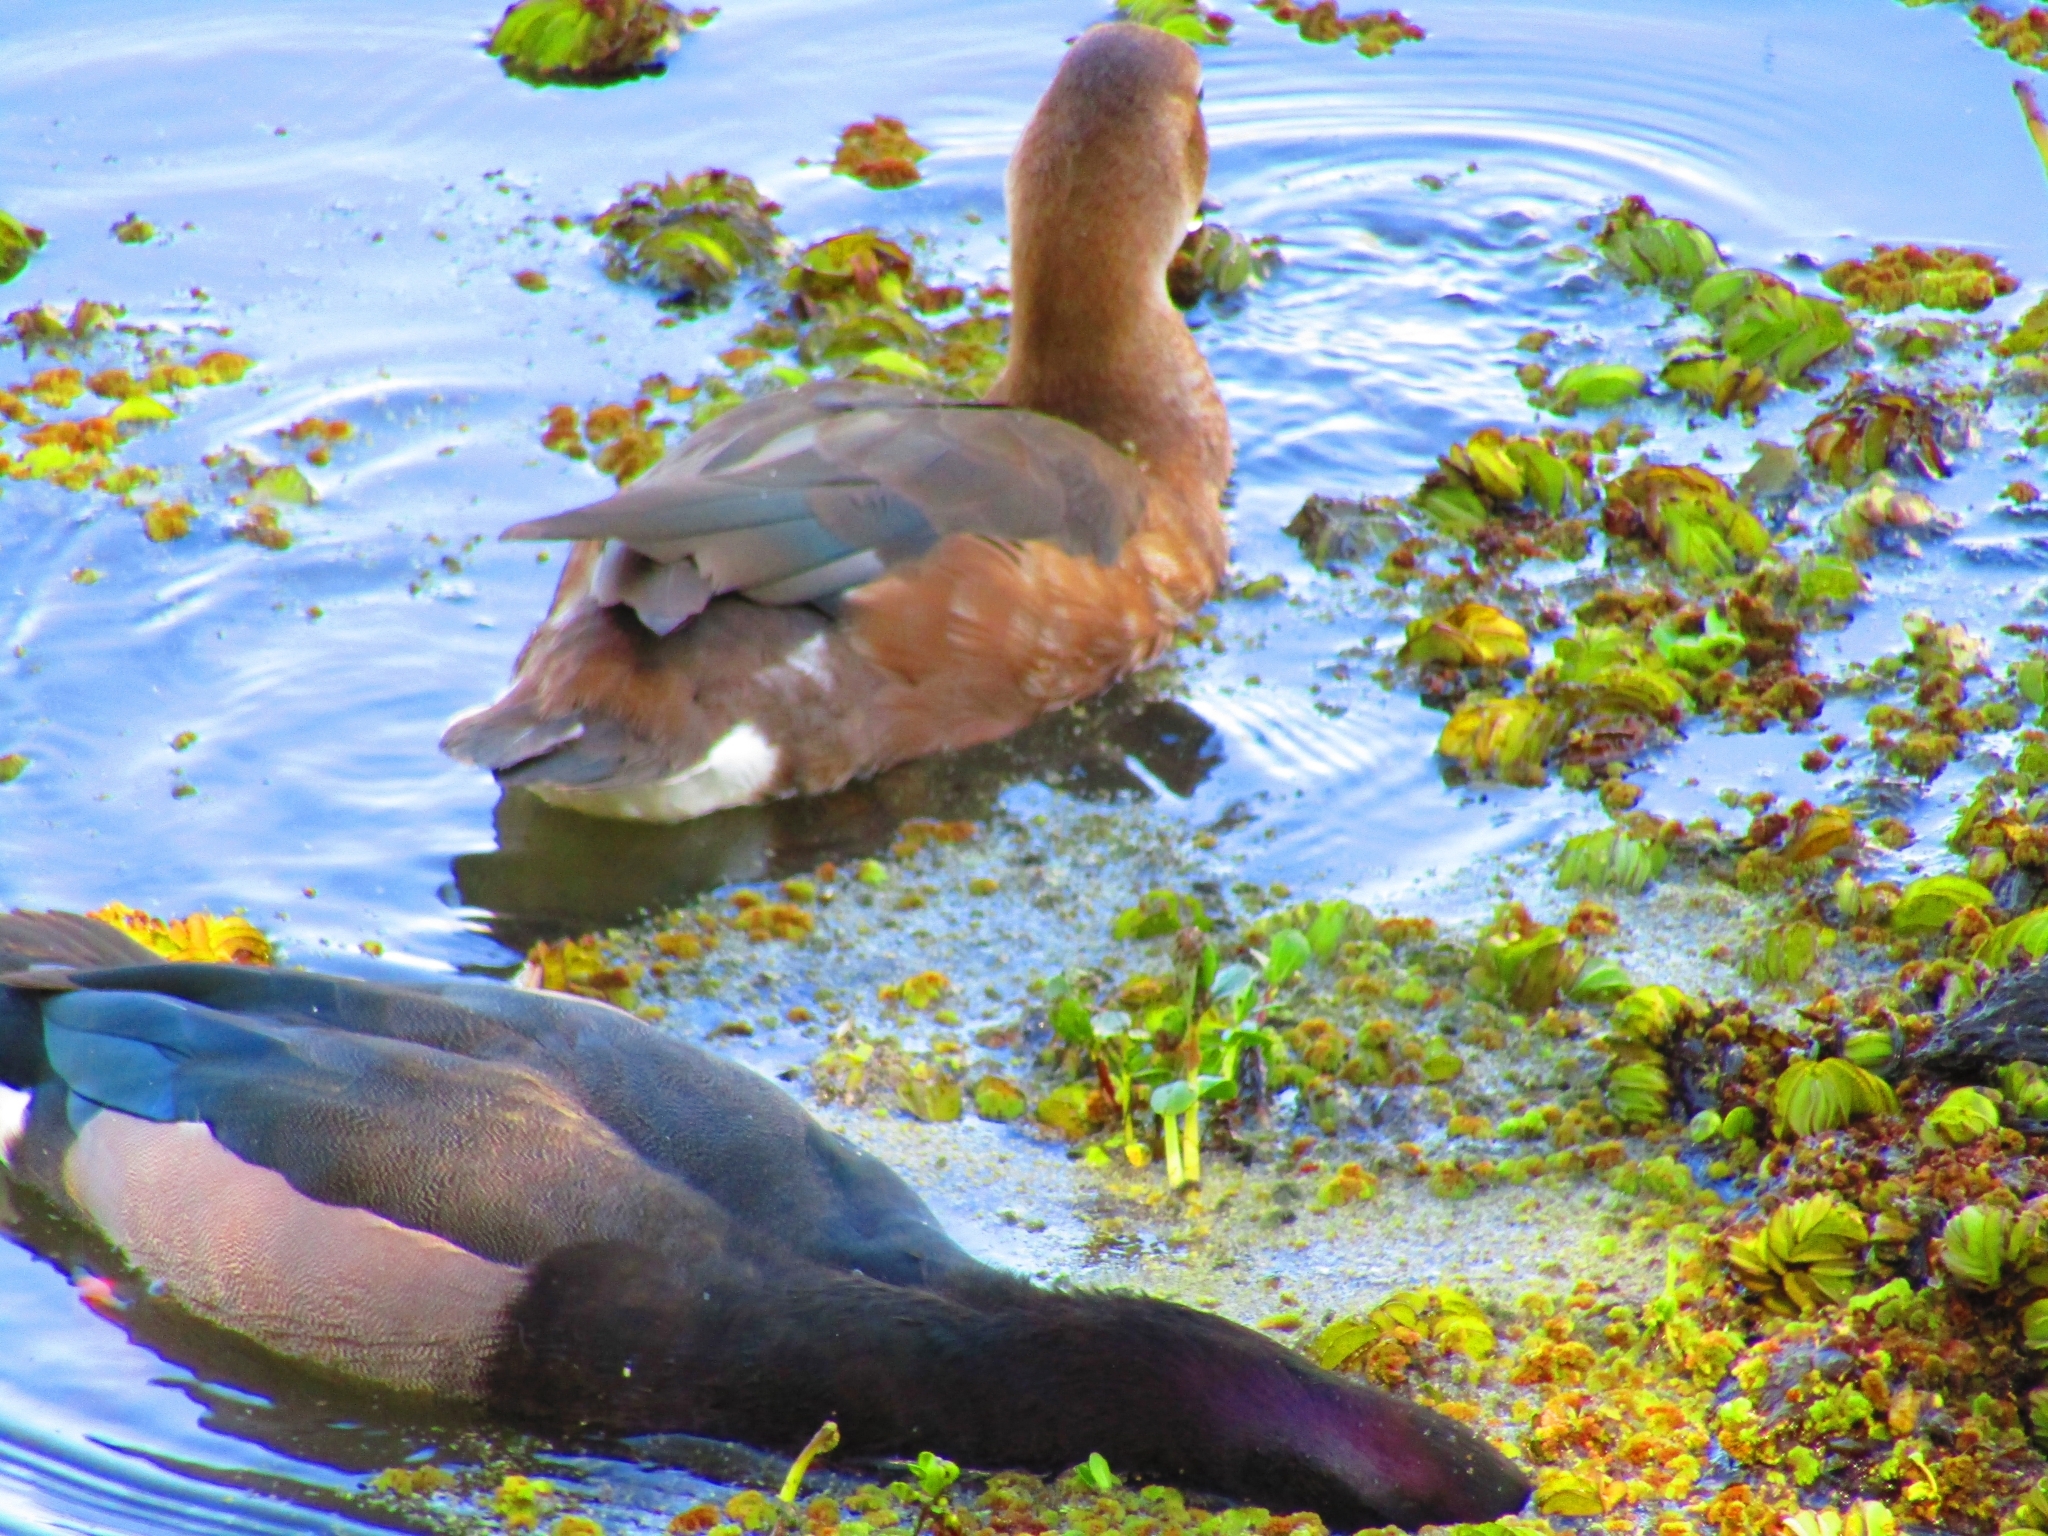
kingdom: Animalia
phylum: Chordata
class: Aves
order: Anseriformes
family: Anatidae
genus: Netta
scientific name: Netta peposaca
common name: Rosy-billed pochard
